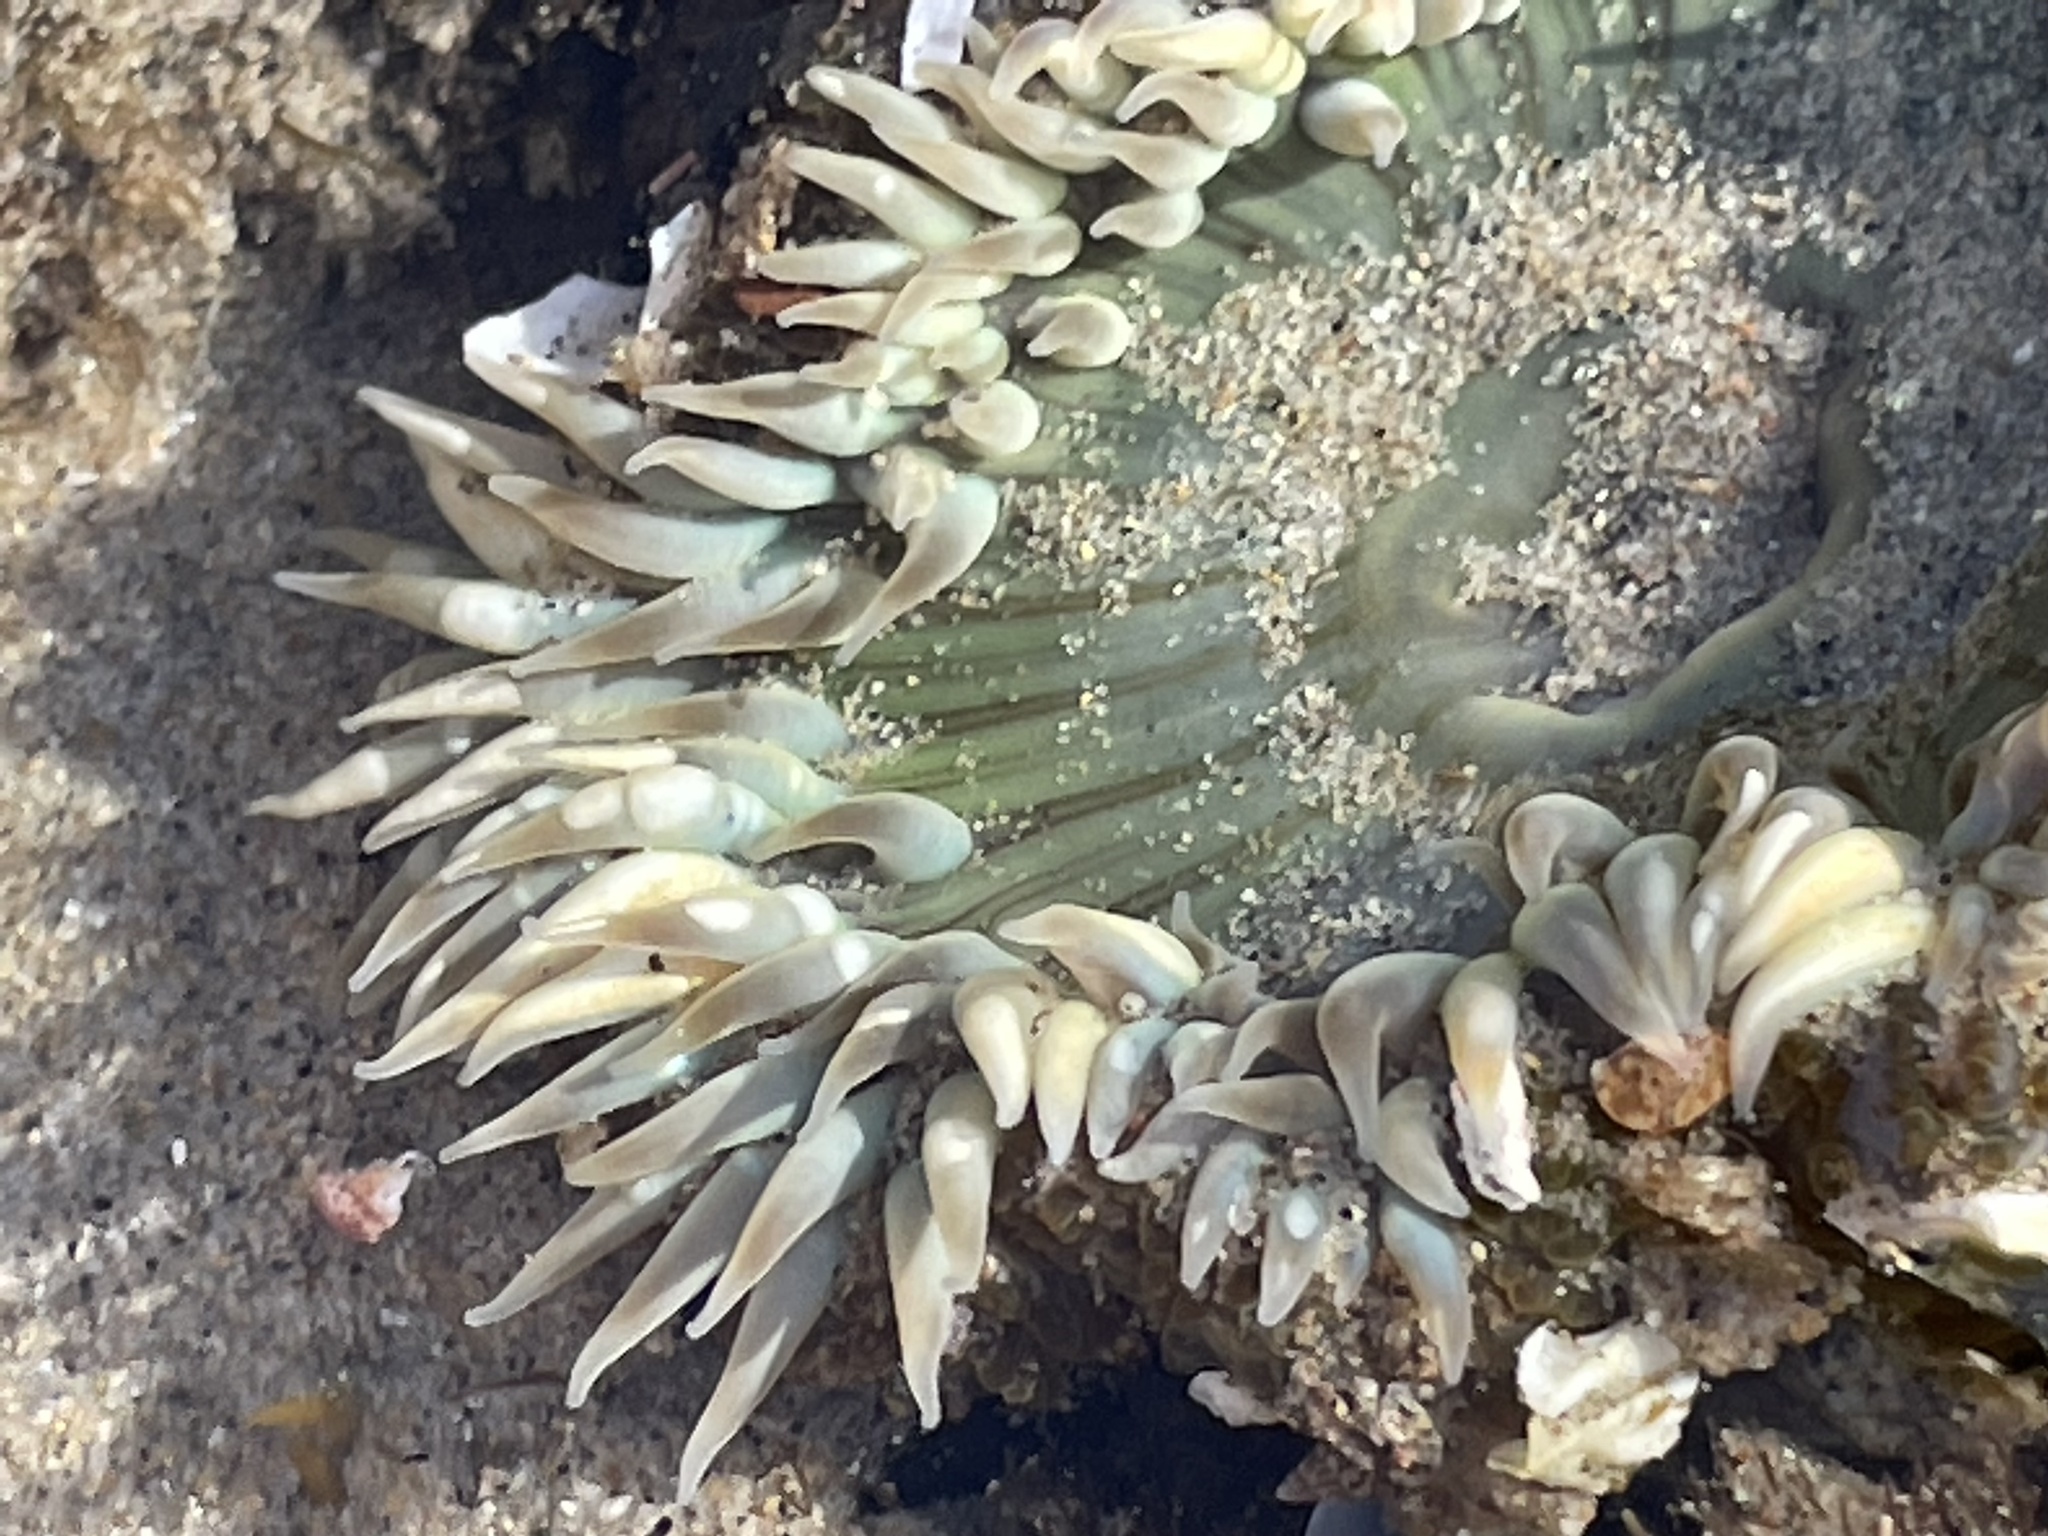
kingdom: Animalia
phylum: Cnidaria
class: Anthozoa
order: Actiniaria
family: Actiniidae
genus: Anthopleura
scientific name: Anthopleura sola
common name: Sun anemone
